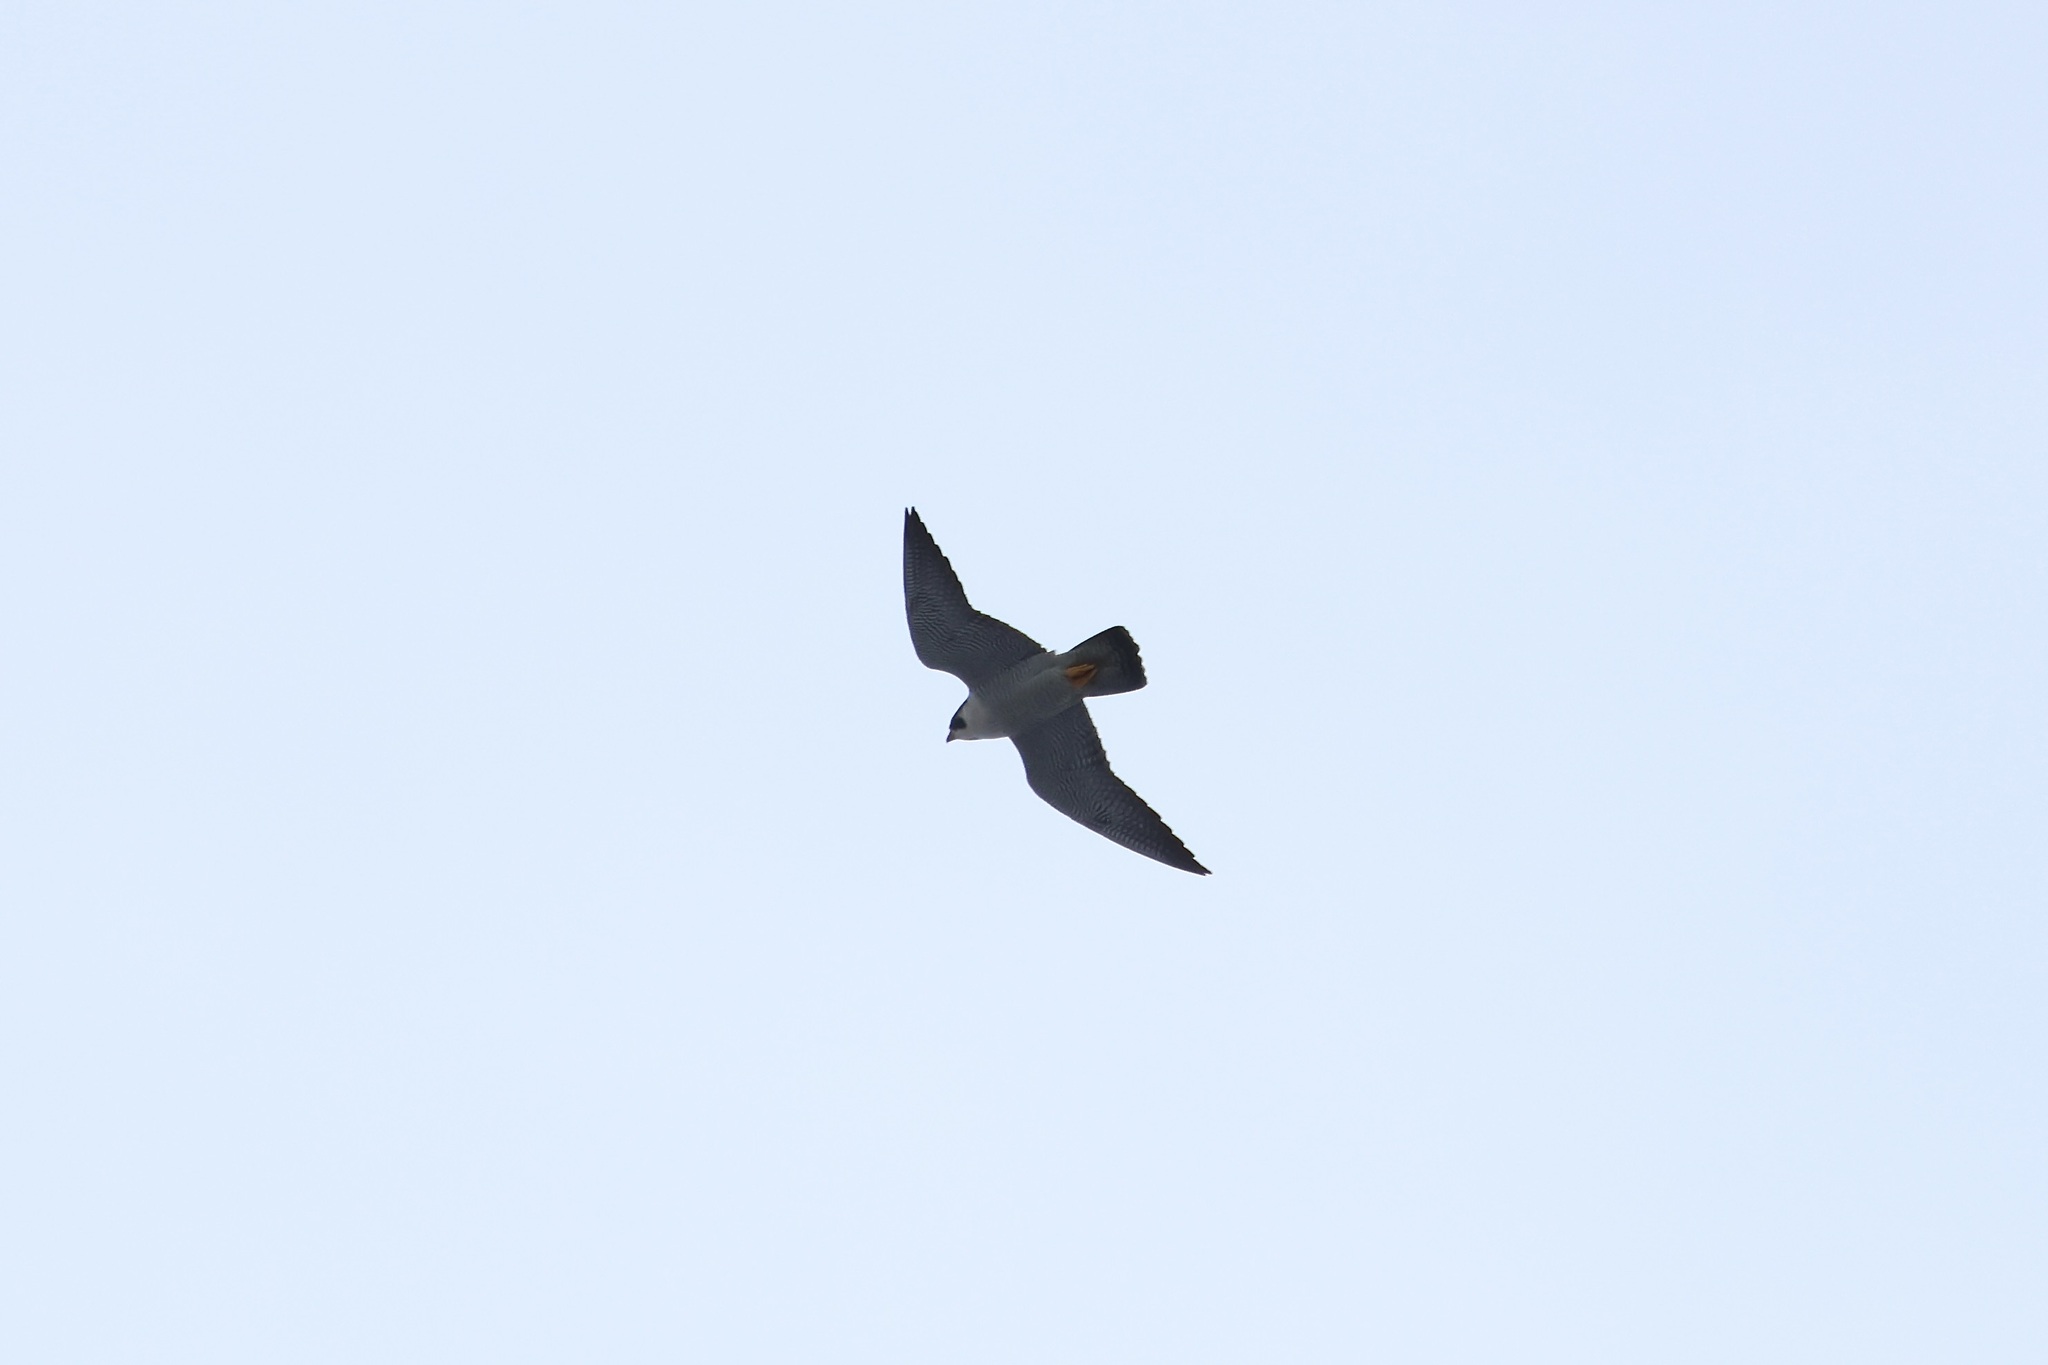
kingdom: Animalia
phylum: Chordata
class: Aves
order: Falconiformes
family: Falconidae
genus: Falco
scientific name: Falco peregrinus
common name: Peregrine falcon
